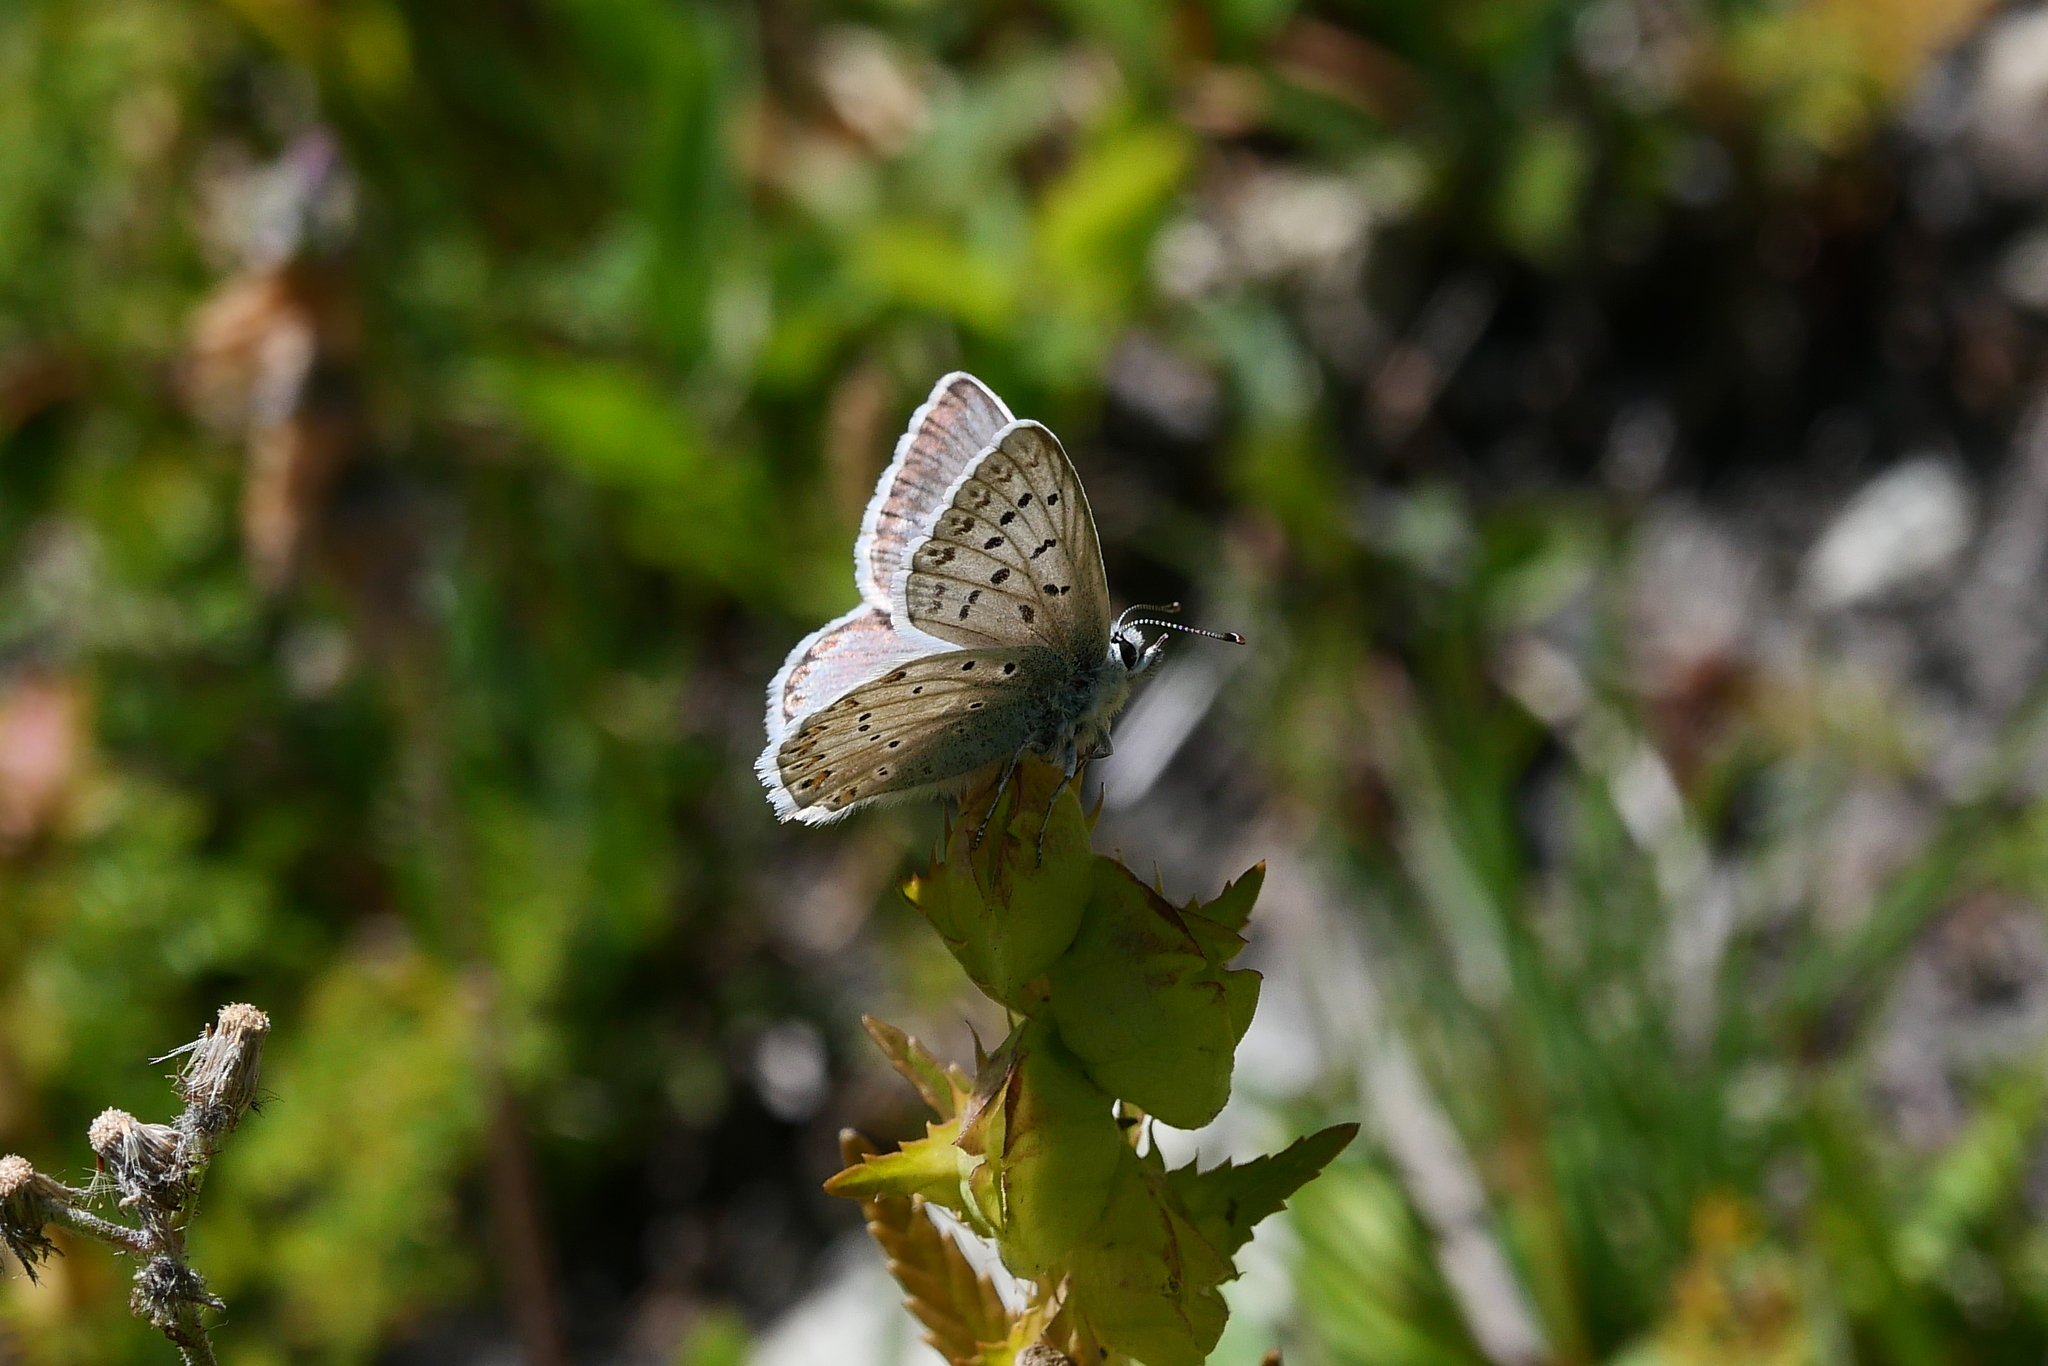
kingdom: Animalia
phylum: Arthropoda
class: Insecta
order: Lepidoptera
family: Lycaenidae
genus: Lysandra
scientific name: Lysandra coridon
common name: Chalkhill blue
